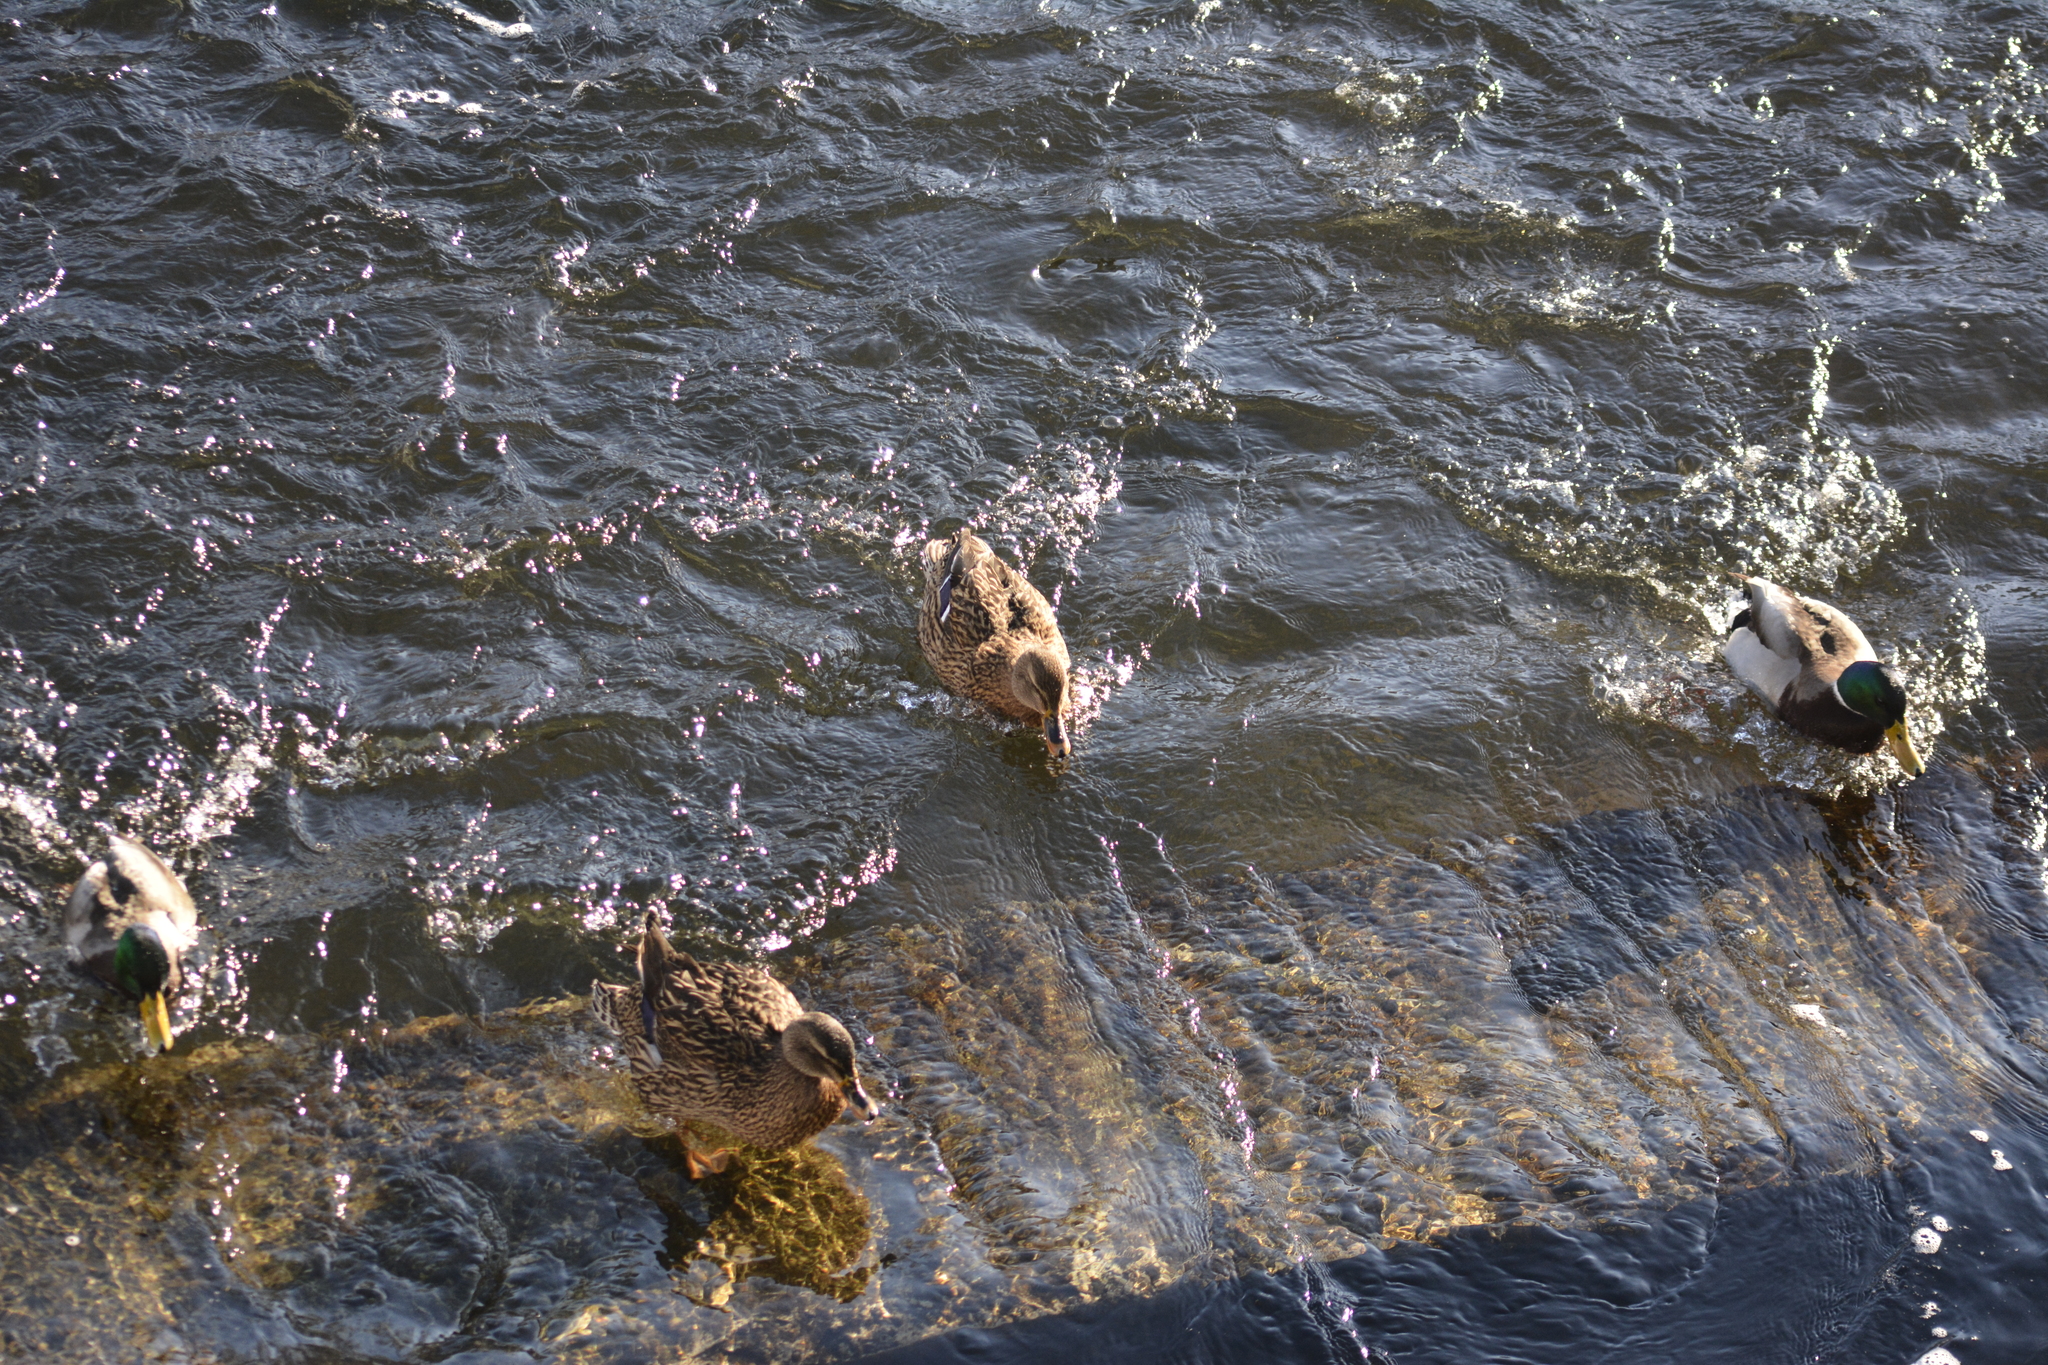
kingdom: Animalia
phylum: Chordata
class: Aves
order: Anseriformes
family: Anatidae
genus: Anas
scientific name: Anas platyrhynchos
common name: Mallard
